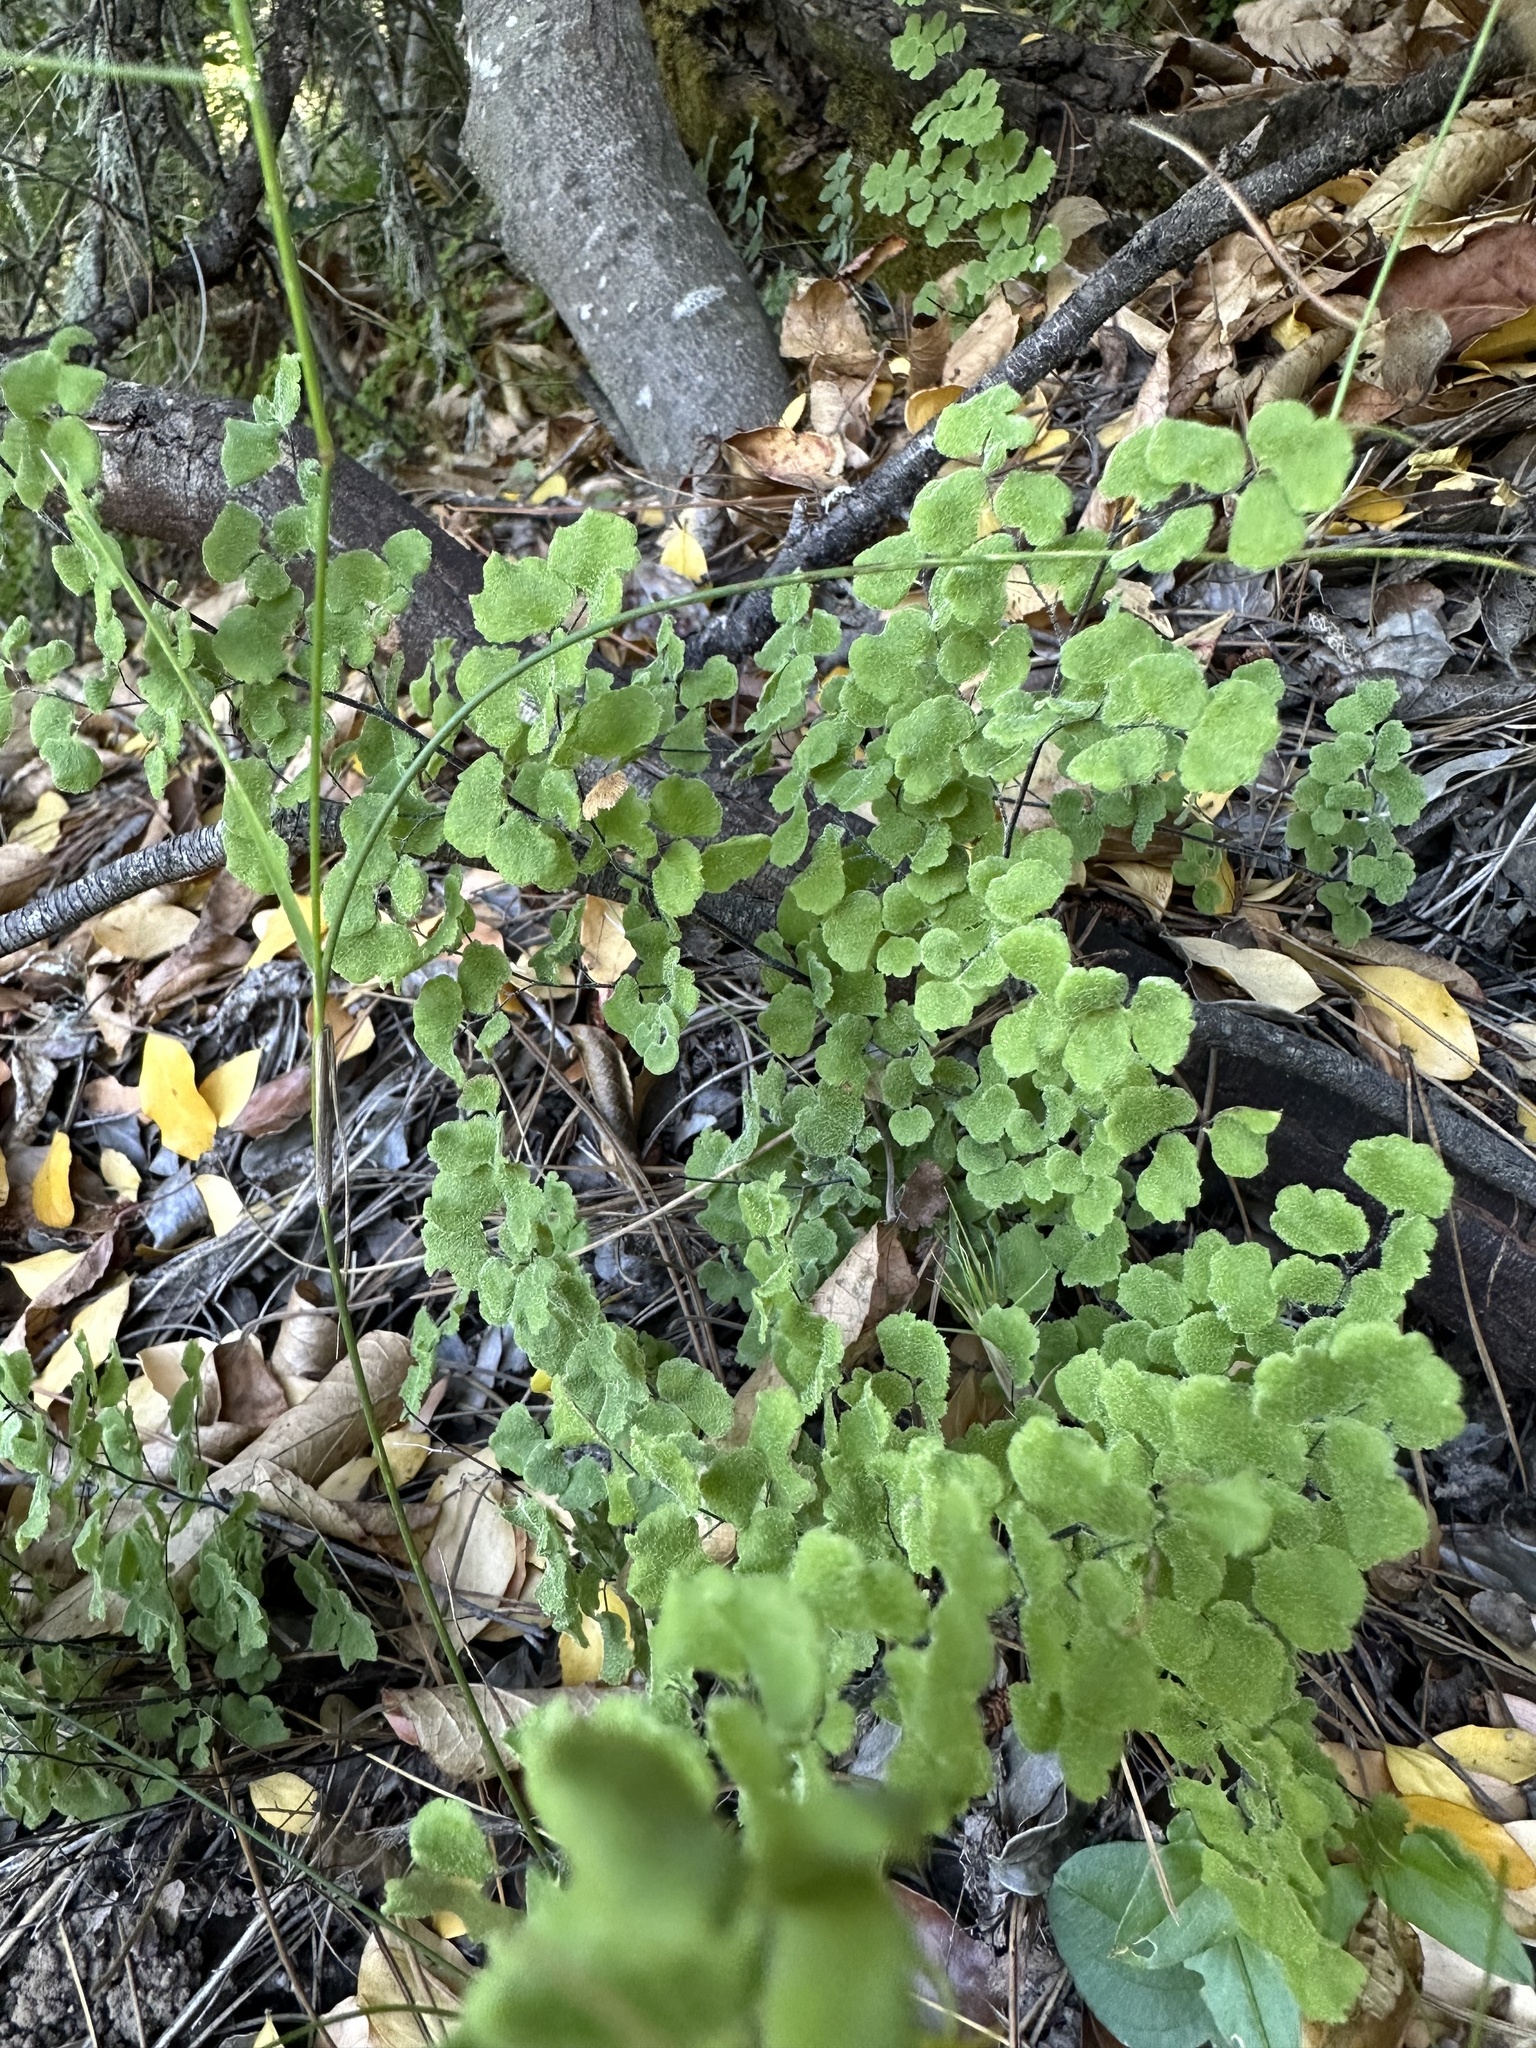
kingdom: Plantae
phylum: Tracheophyta
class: Polypodiopsida
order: Polypodiales
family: Pteridaceae
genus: Adiantum
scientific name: Adiantum chilense
